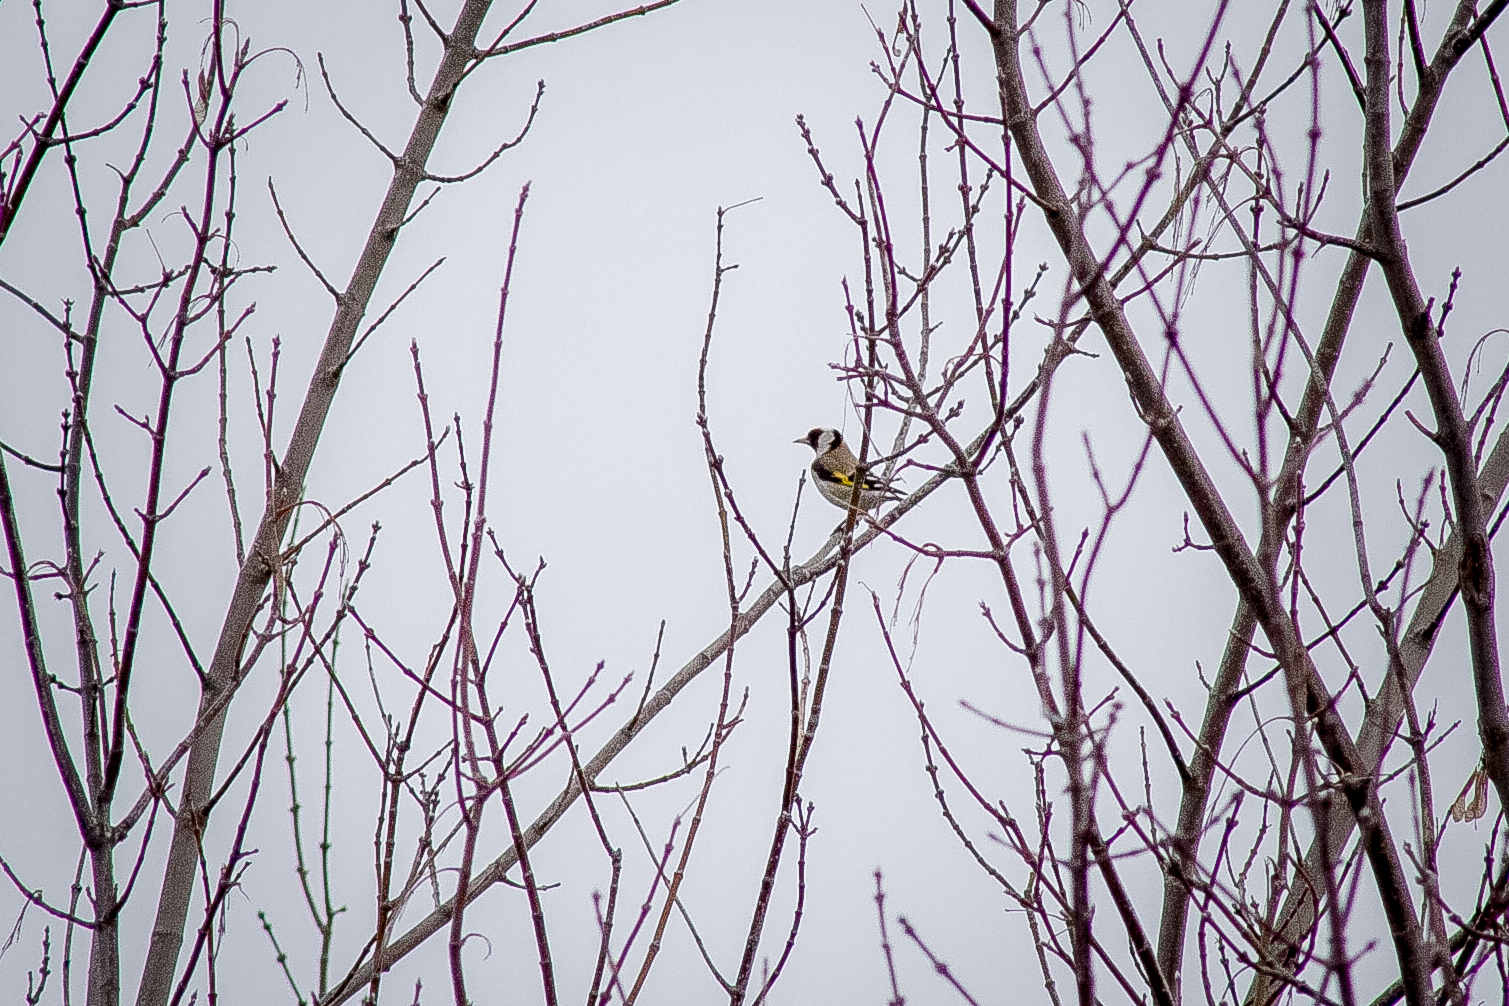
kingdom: Animalia
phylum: Chordata
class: Aves
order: Passeriformes
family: Fringillidae
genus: Carduelis
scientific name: Carduelis carduelis
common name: European goldfinch
